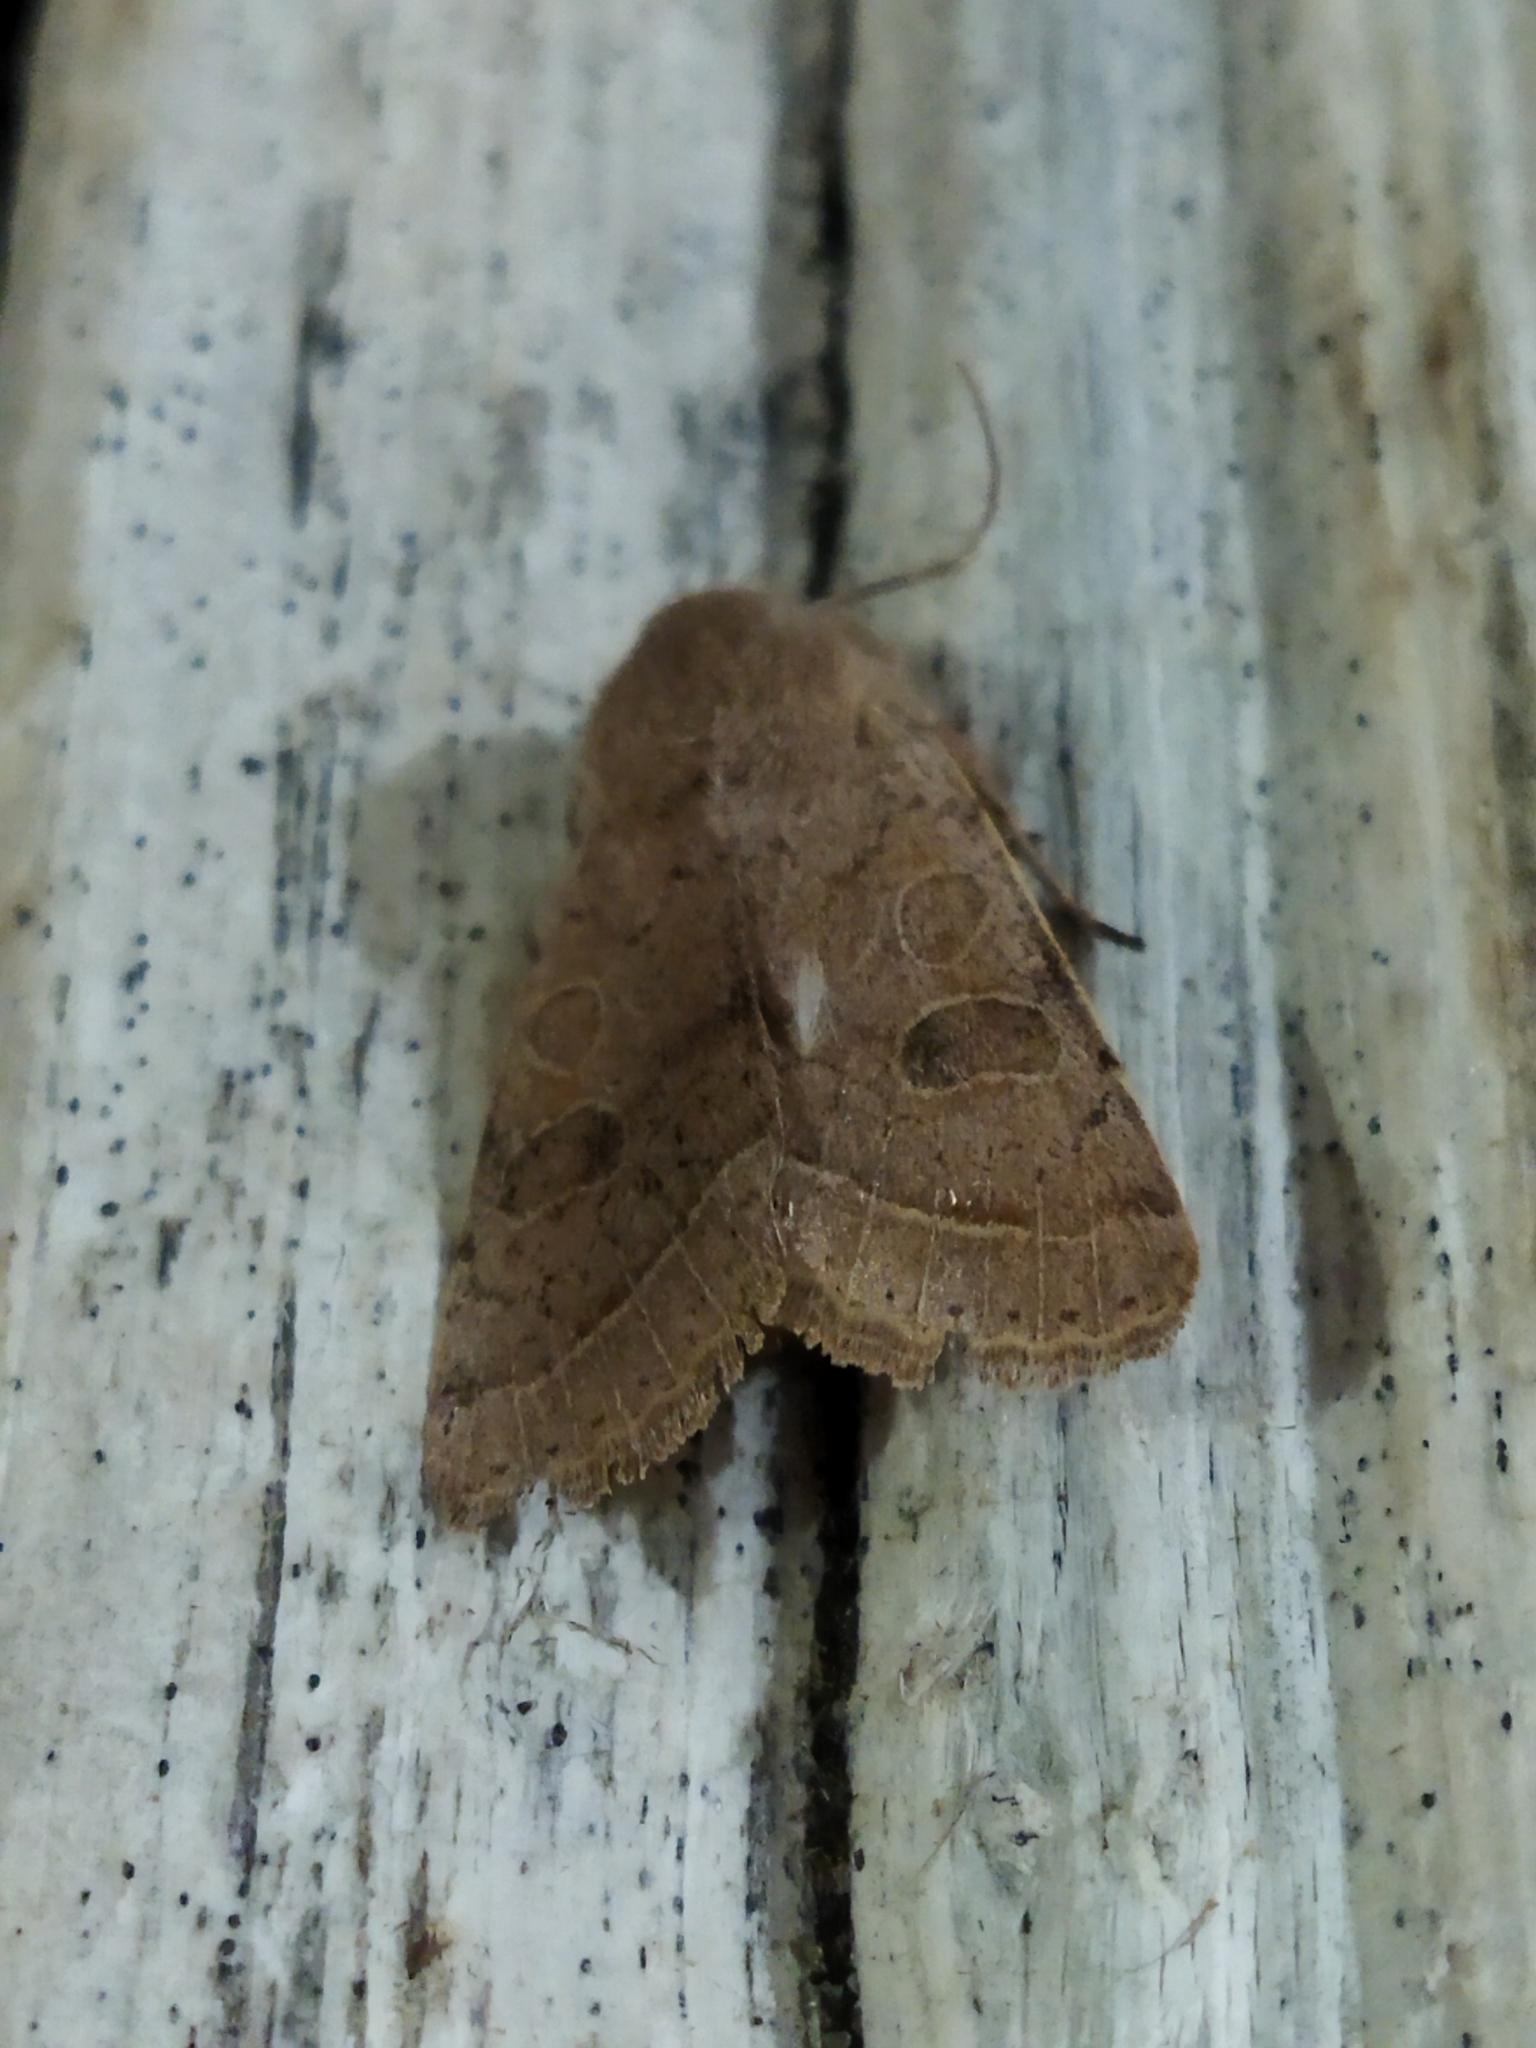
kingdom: Animalia
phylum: Arthropoda
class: Insecta
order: Lepidoptera
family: Noctuidae
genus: Orthosia
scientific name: Orthosia cerasi
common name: Common quaker
